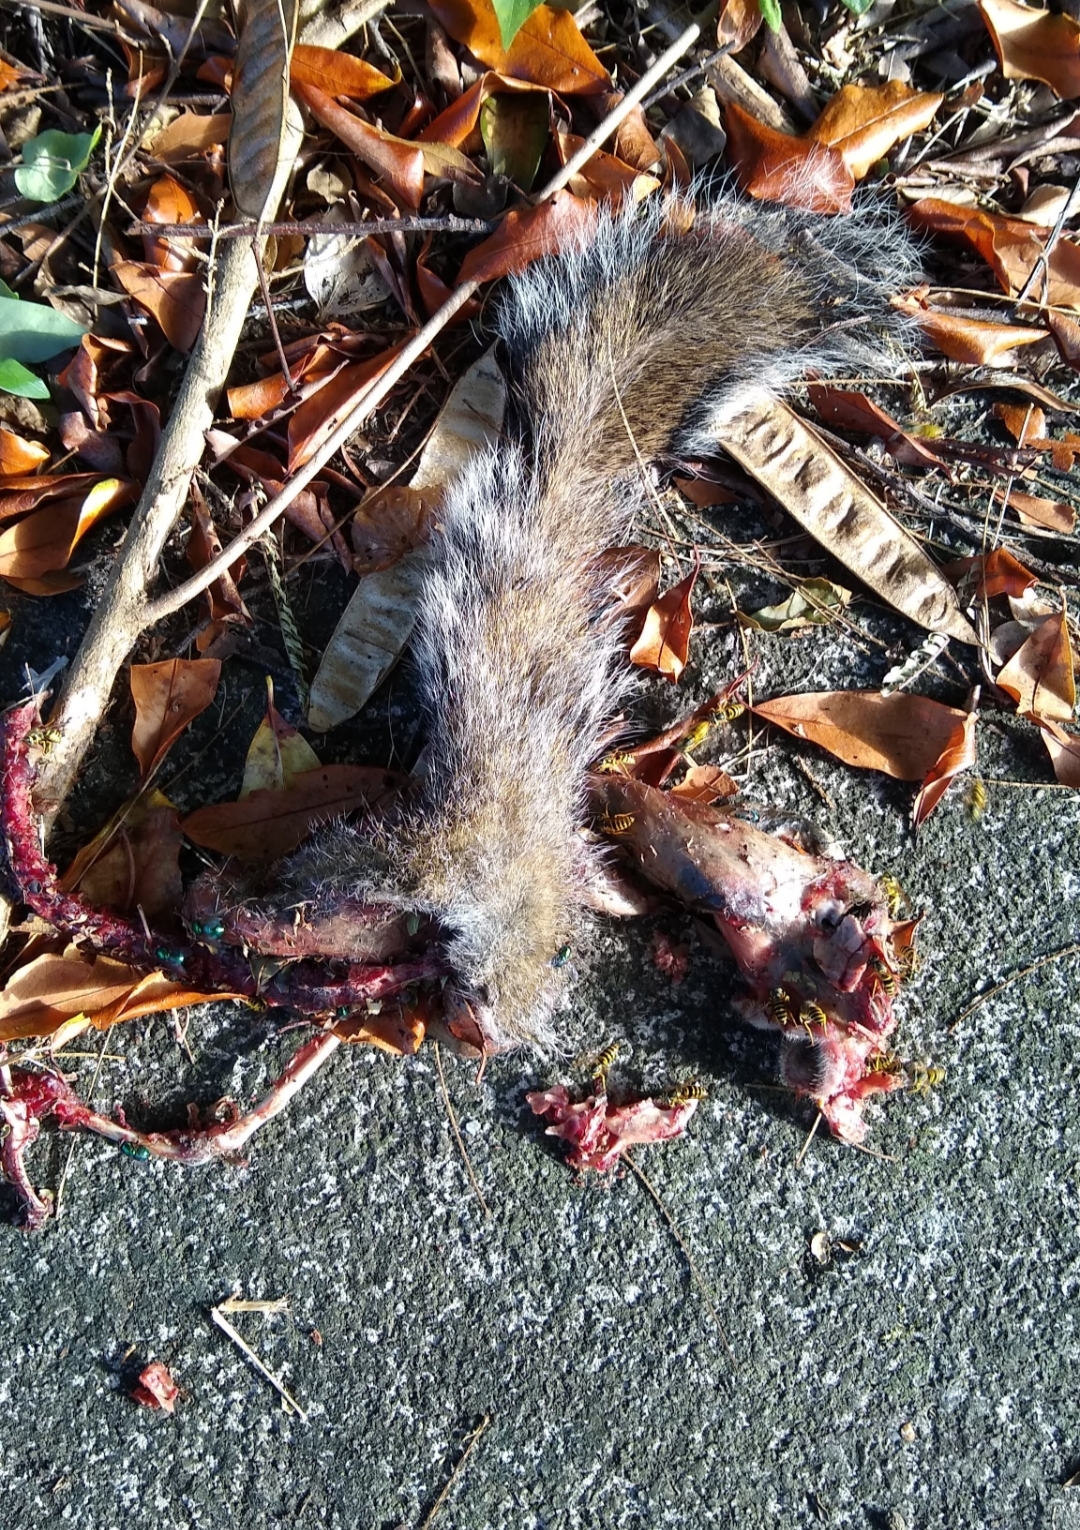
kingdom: Animalia
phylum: Chordata
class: Mammalia
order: Rodentia
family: Sciuridae
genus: Sciurus
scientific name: Sciurus carolinensis
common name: Eastern gray squirrel
